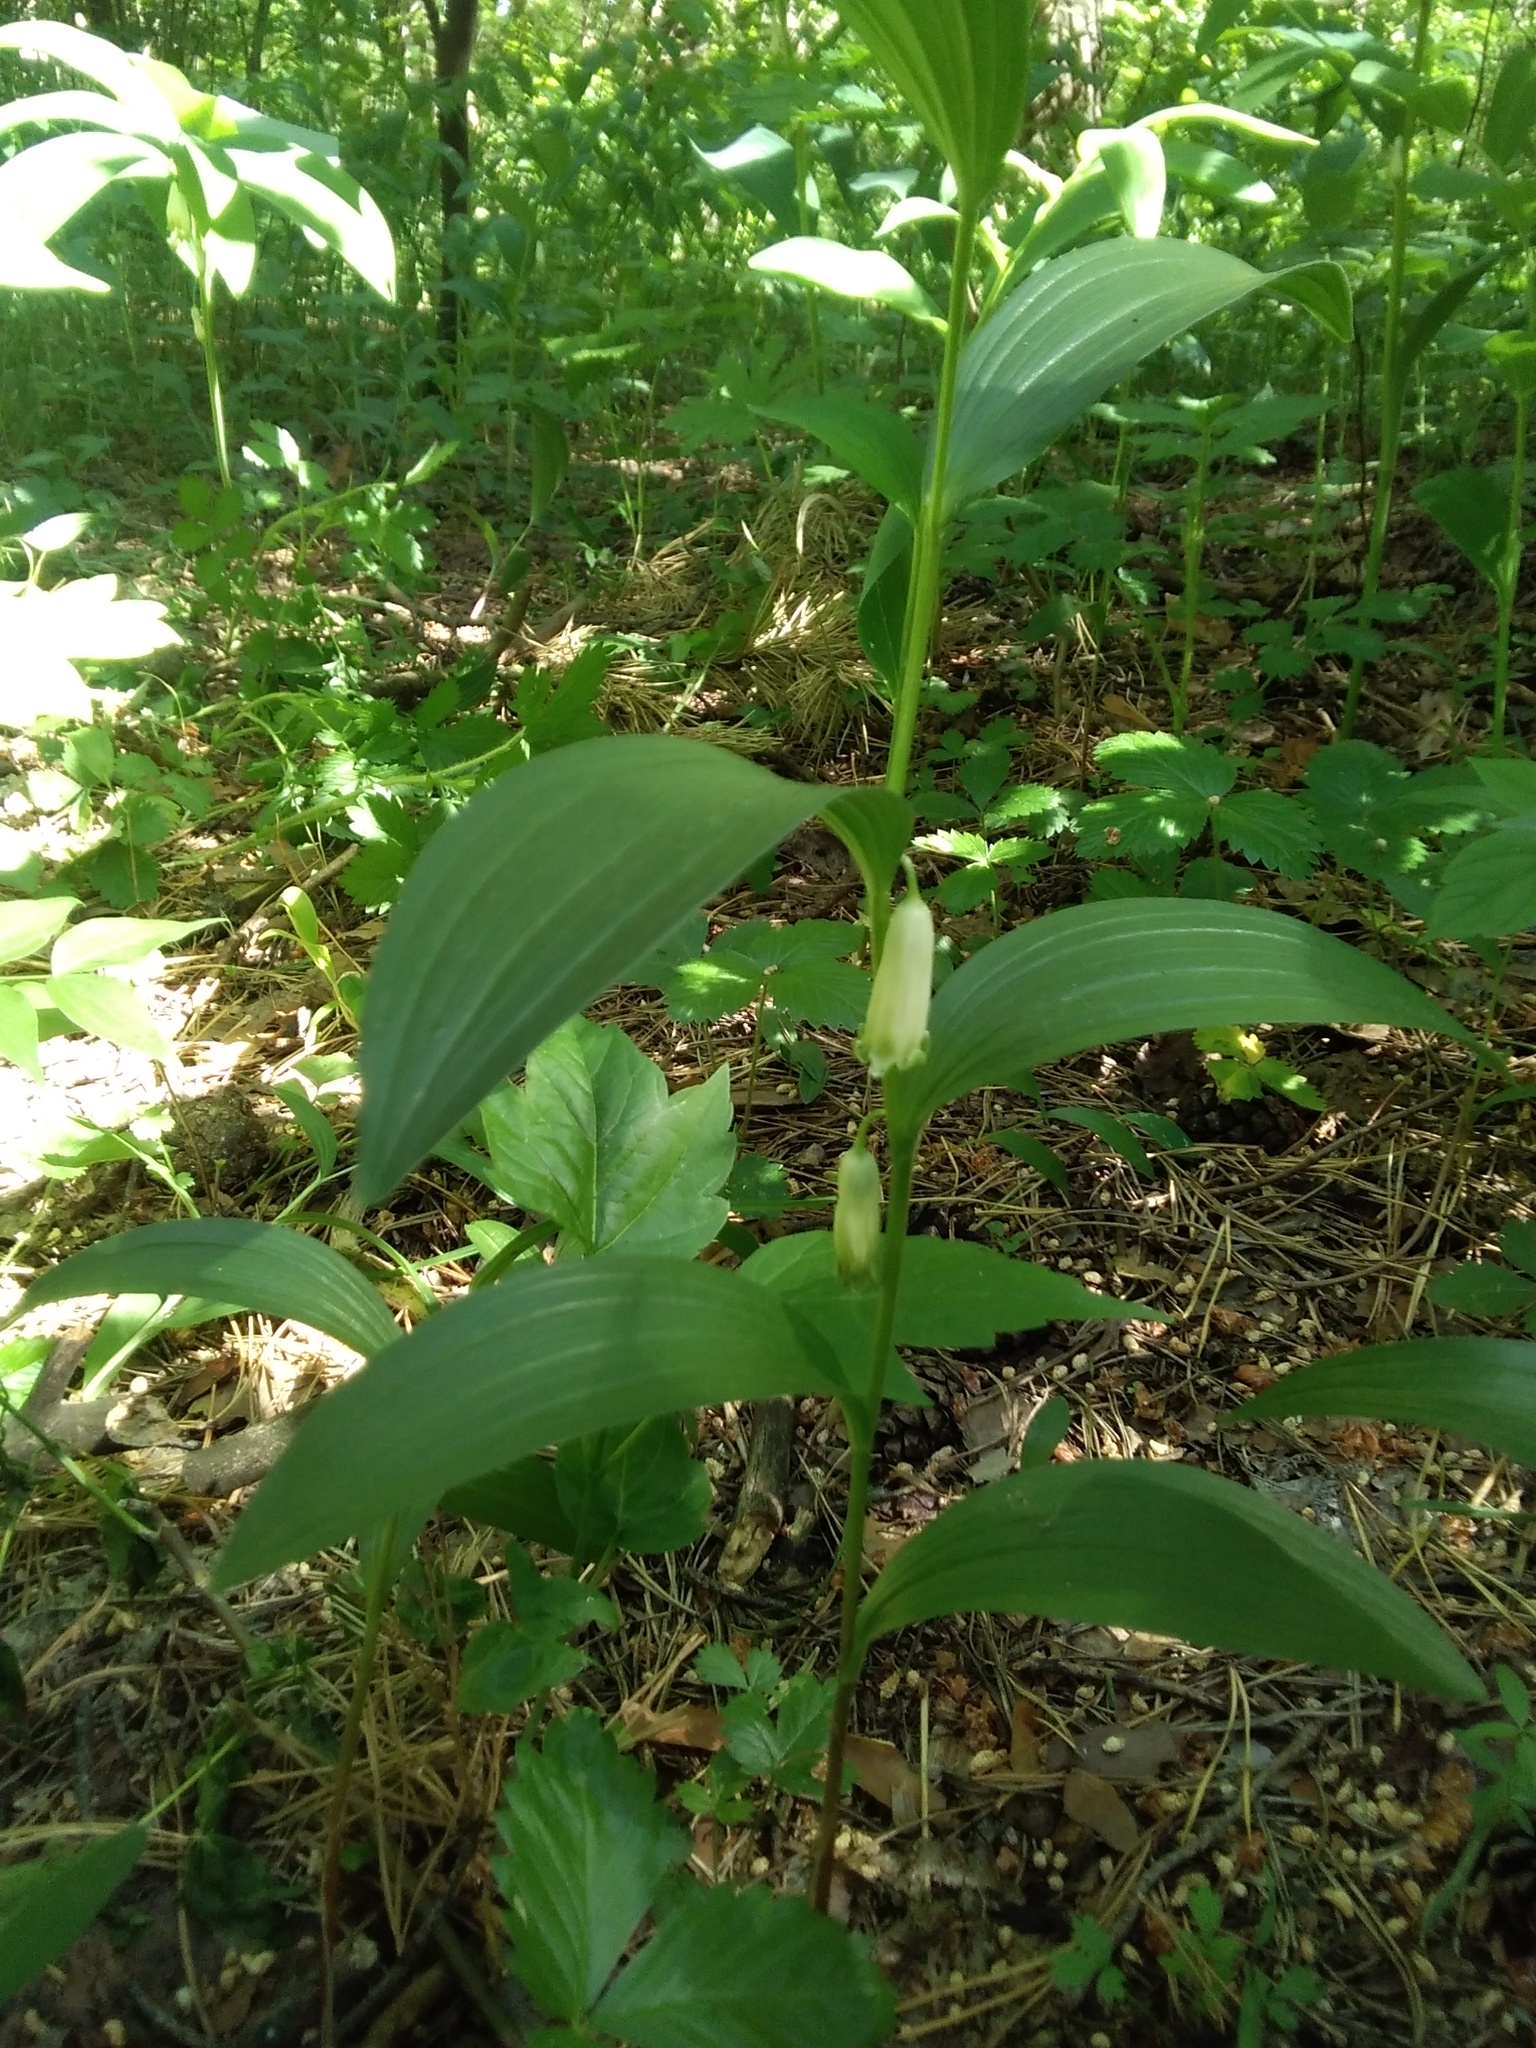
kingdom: Plantae
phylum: Tracheophyta
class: Liliopsida
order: Asparagales
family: Asparagaceae
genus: Polygonatum
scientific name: Polygonatum humile
